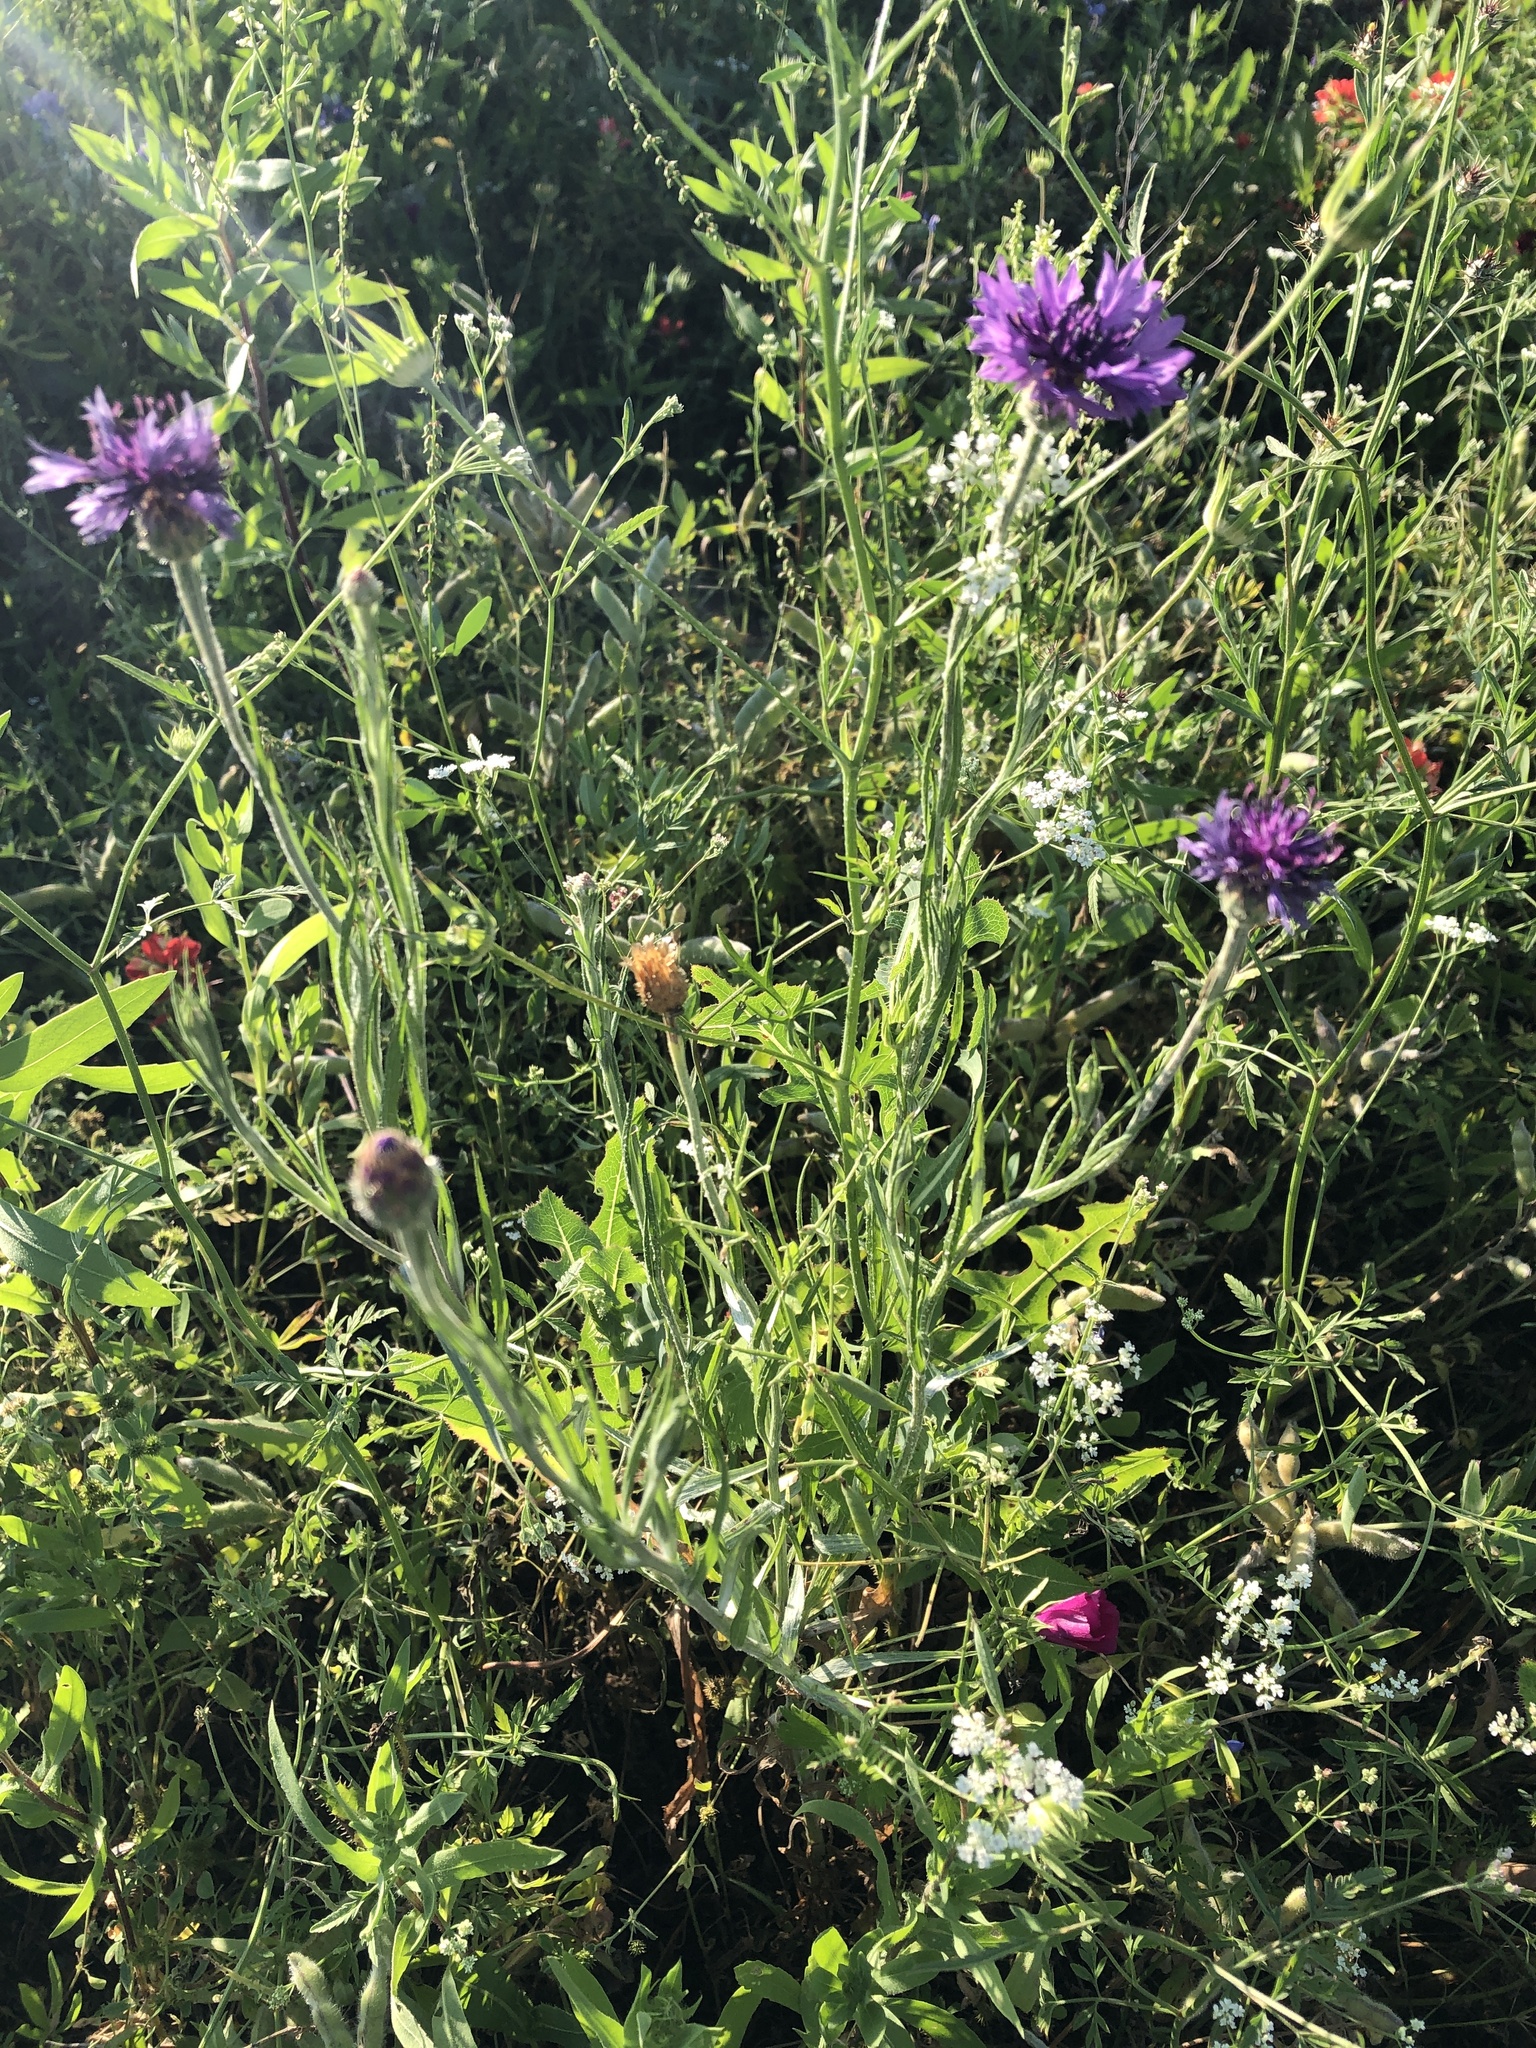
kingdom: Plantae
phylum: Tracheophyta
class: Magnoliopsida
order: Asterales
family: Asteraceae
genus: Centaurea
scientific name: Centaurea cyanus
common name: Cornflower
